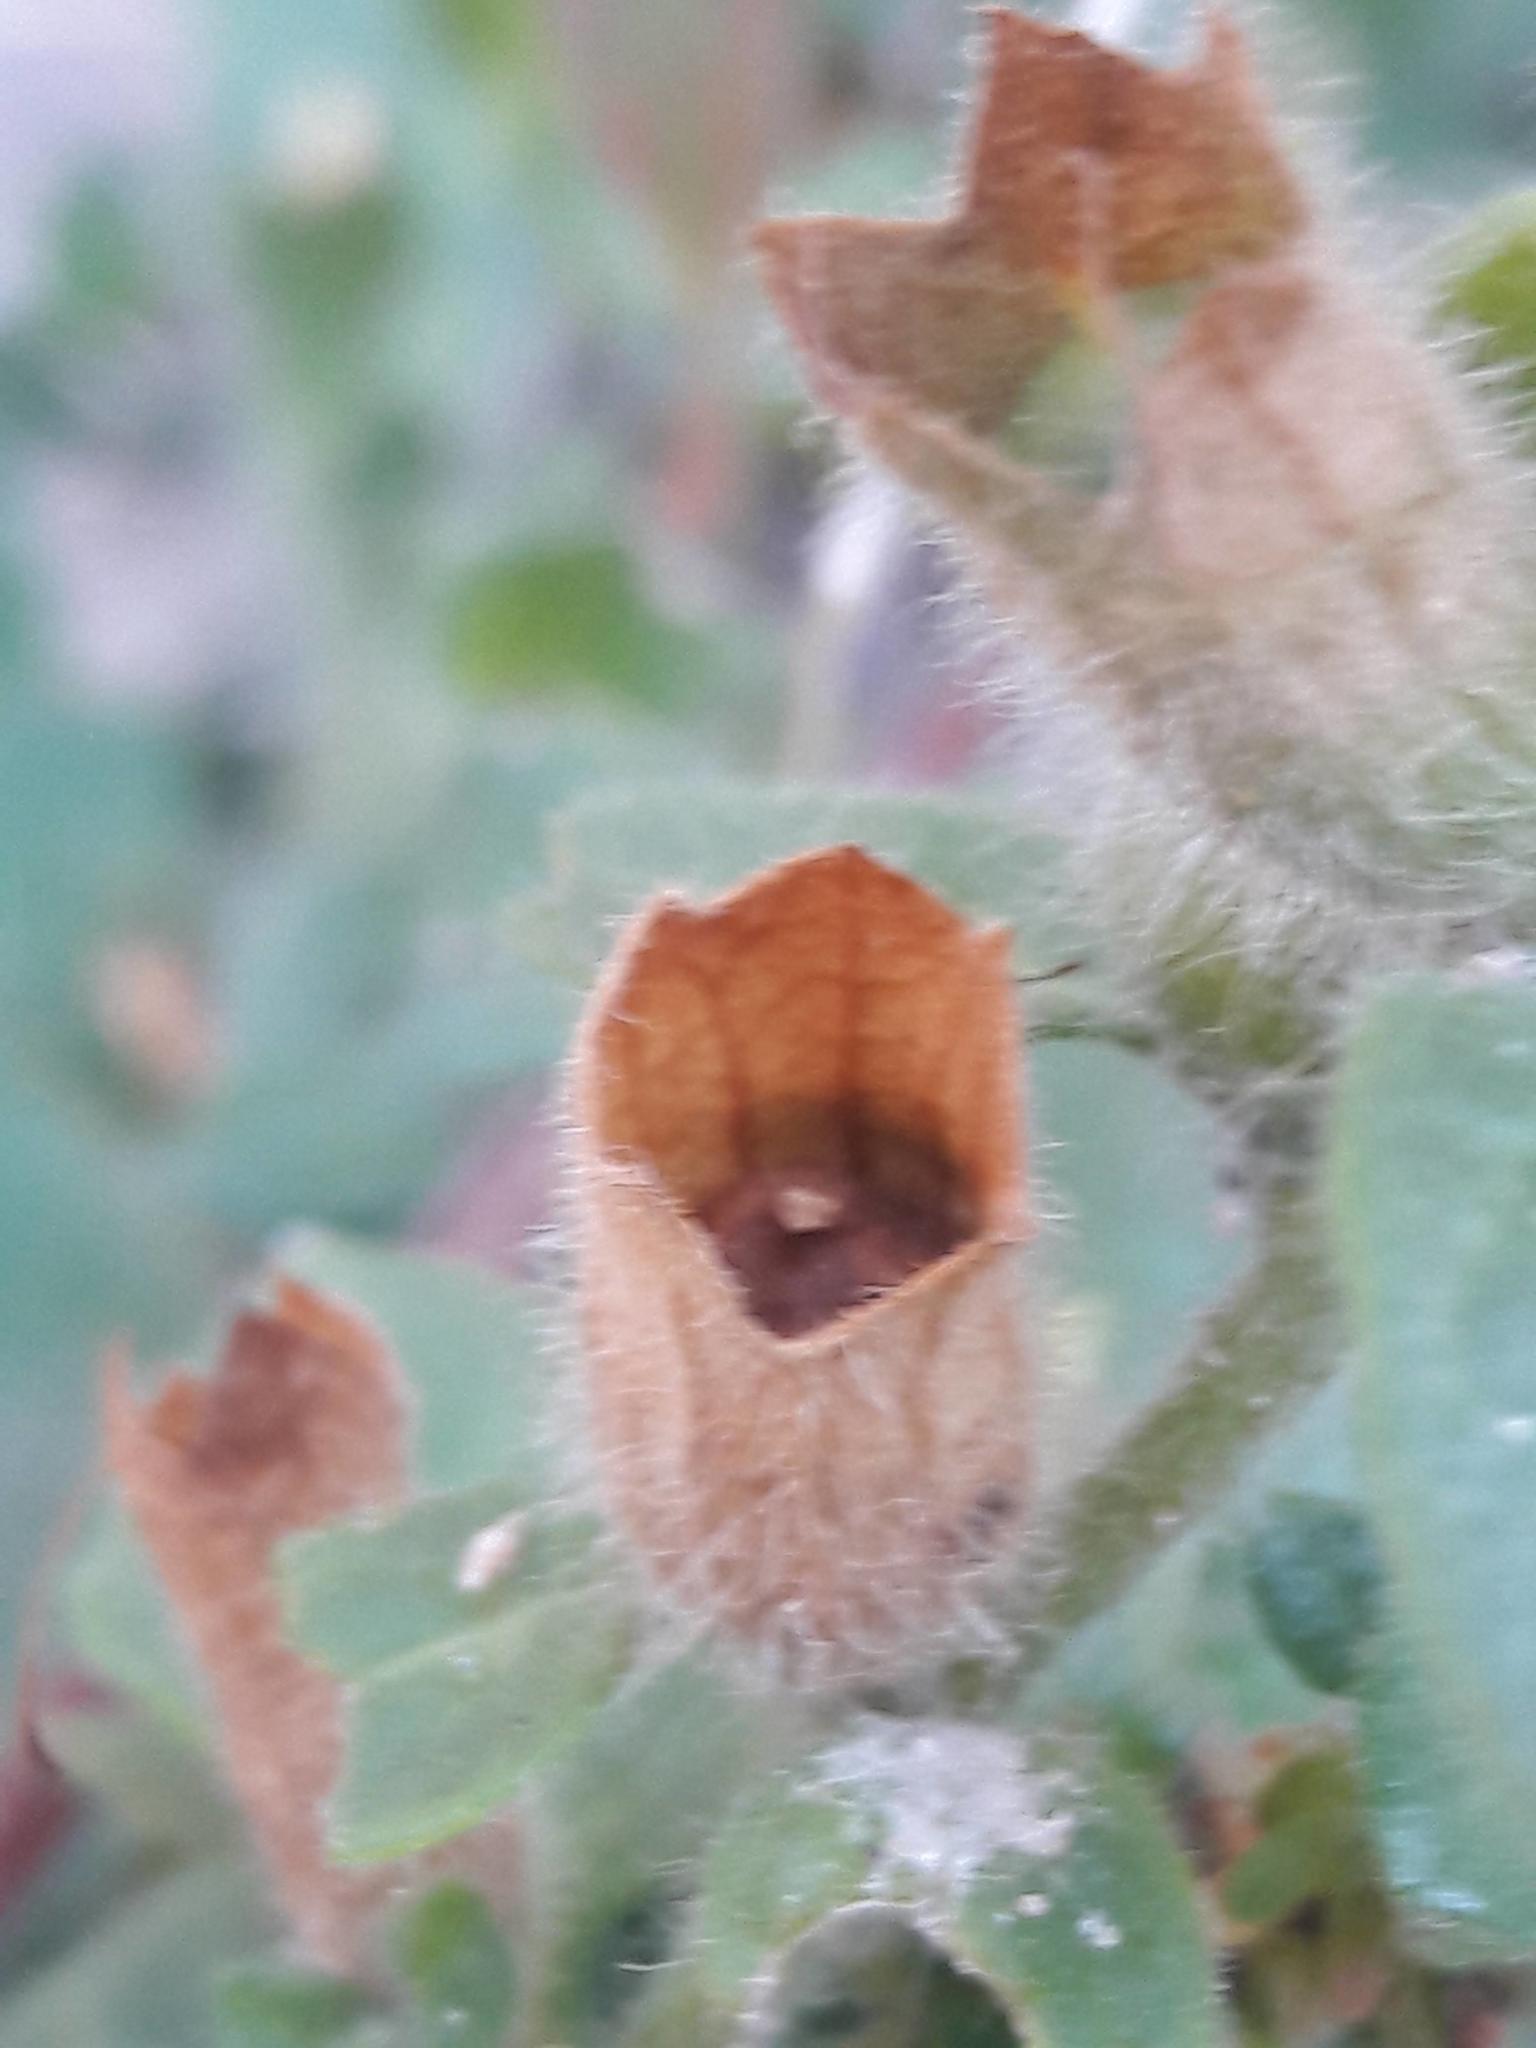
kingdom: Plantae
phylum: Tracheophyta
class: Magnoliopsida
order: Solanales
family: Solanaceae
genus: Hyoscyamus
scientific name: Hyoscyamus albus
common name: White henbane
